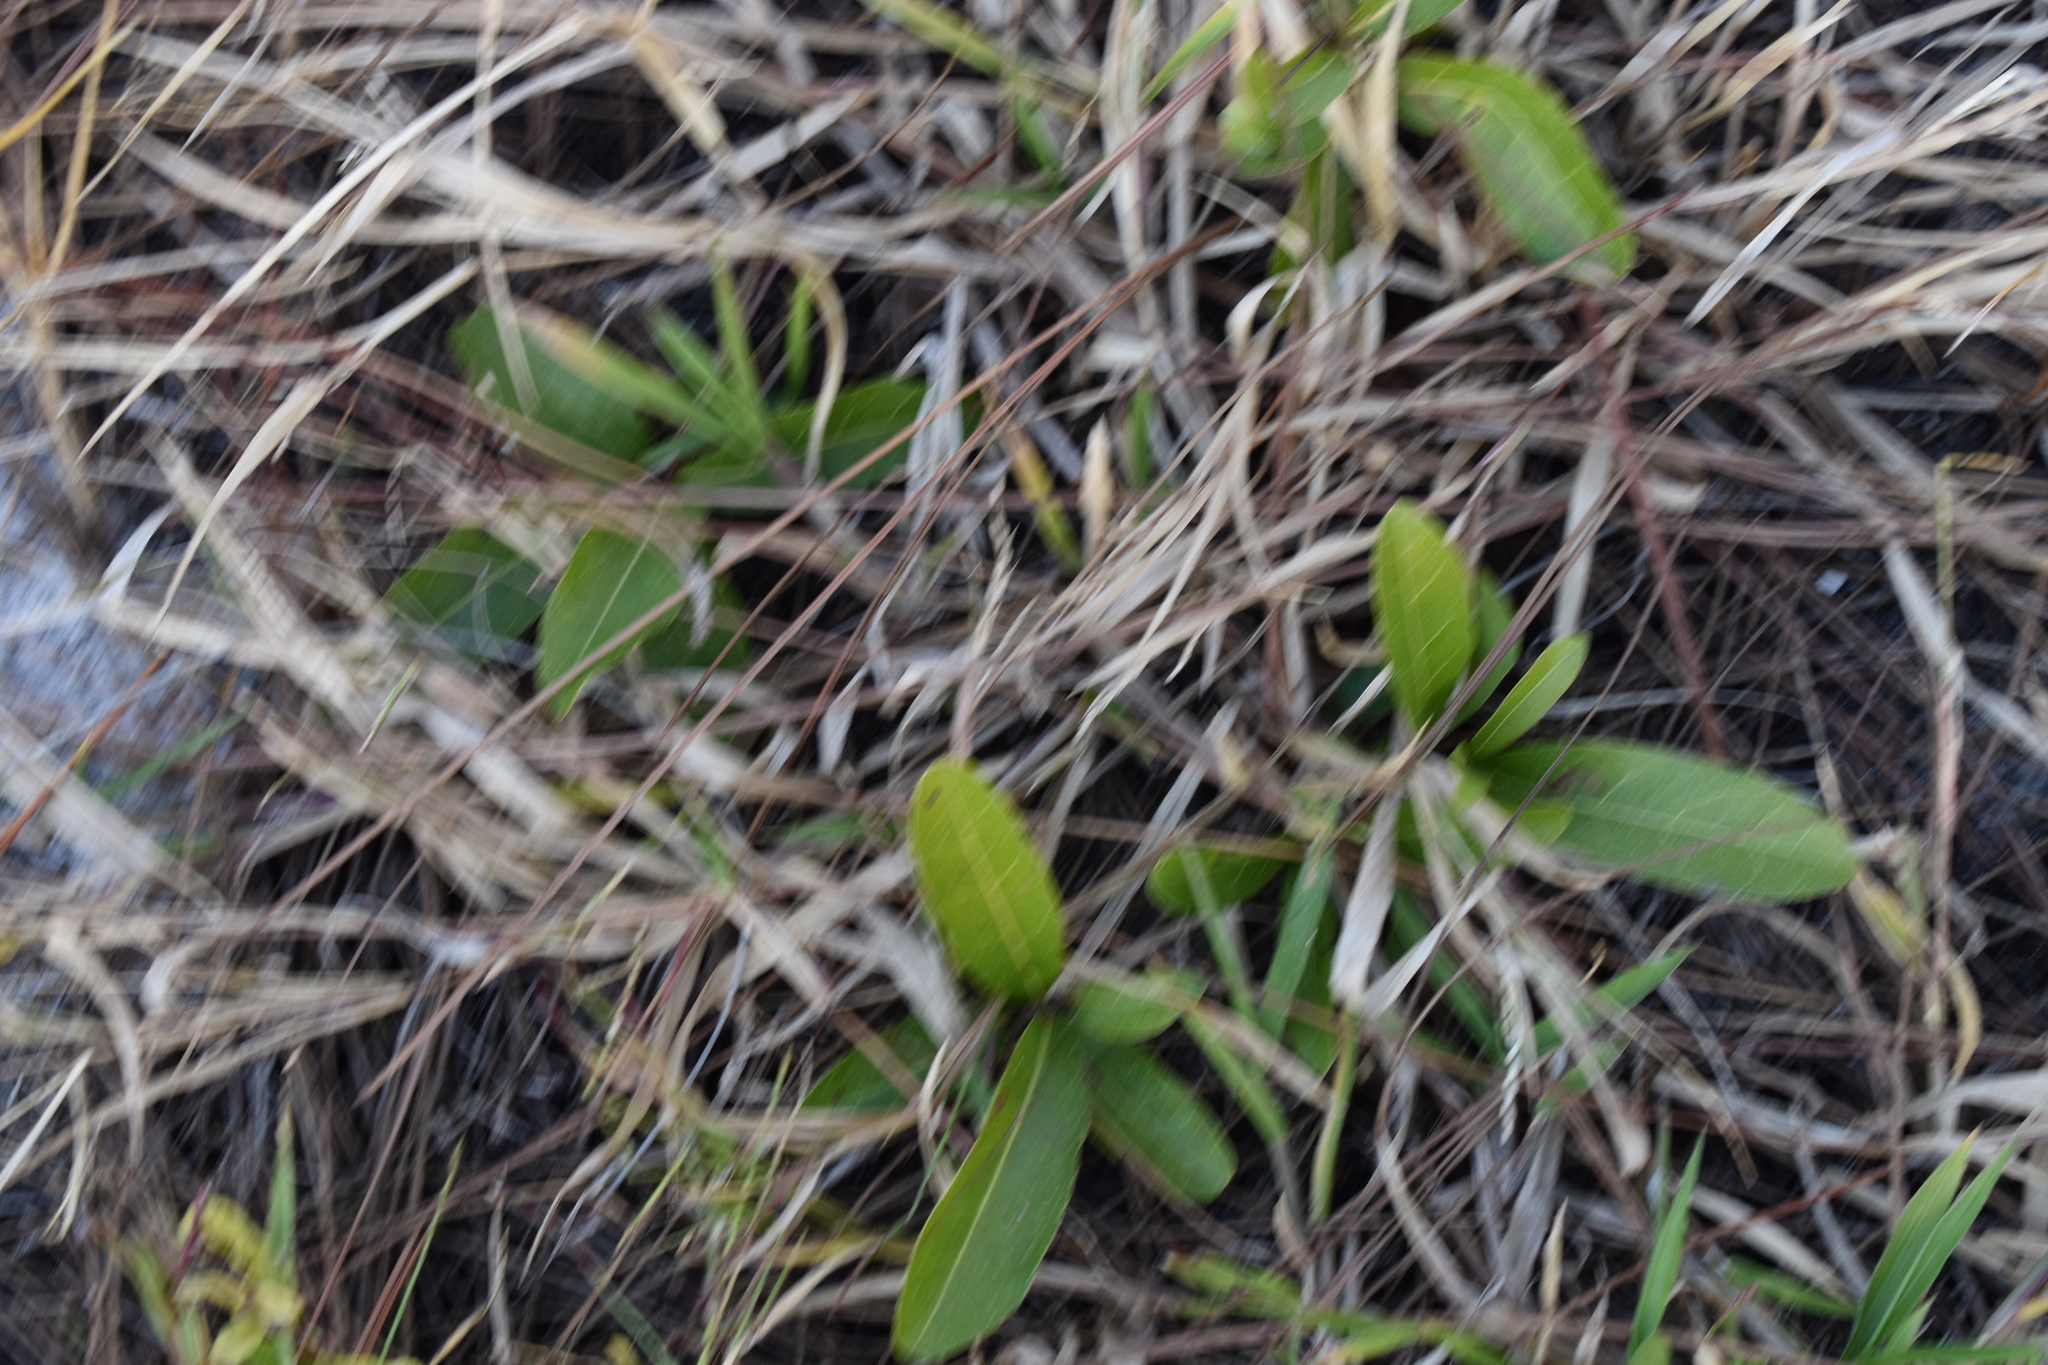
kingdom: Plantae
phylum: Tracheophyta
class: Magnoliopsida
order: Malpighiales
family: Chrysobalanaceae
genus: Geobalanus
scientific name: Geobalanus oblongifolius
